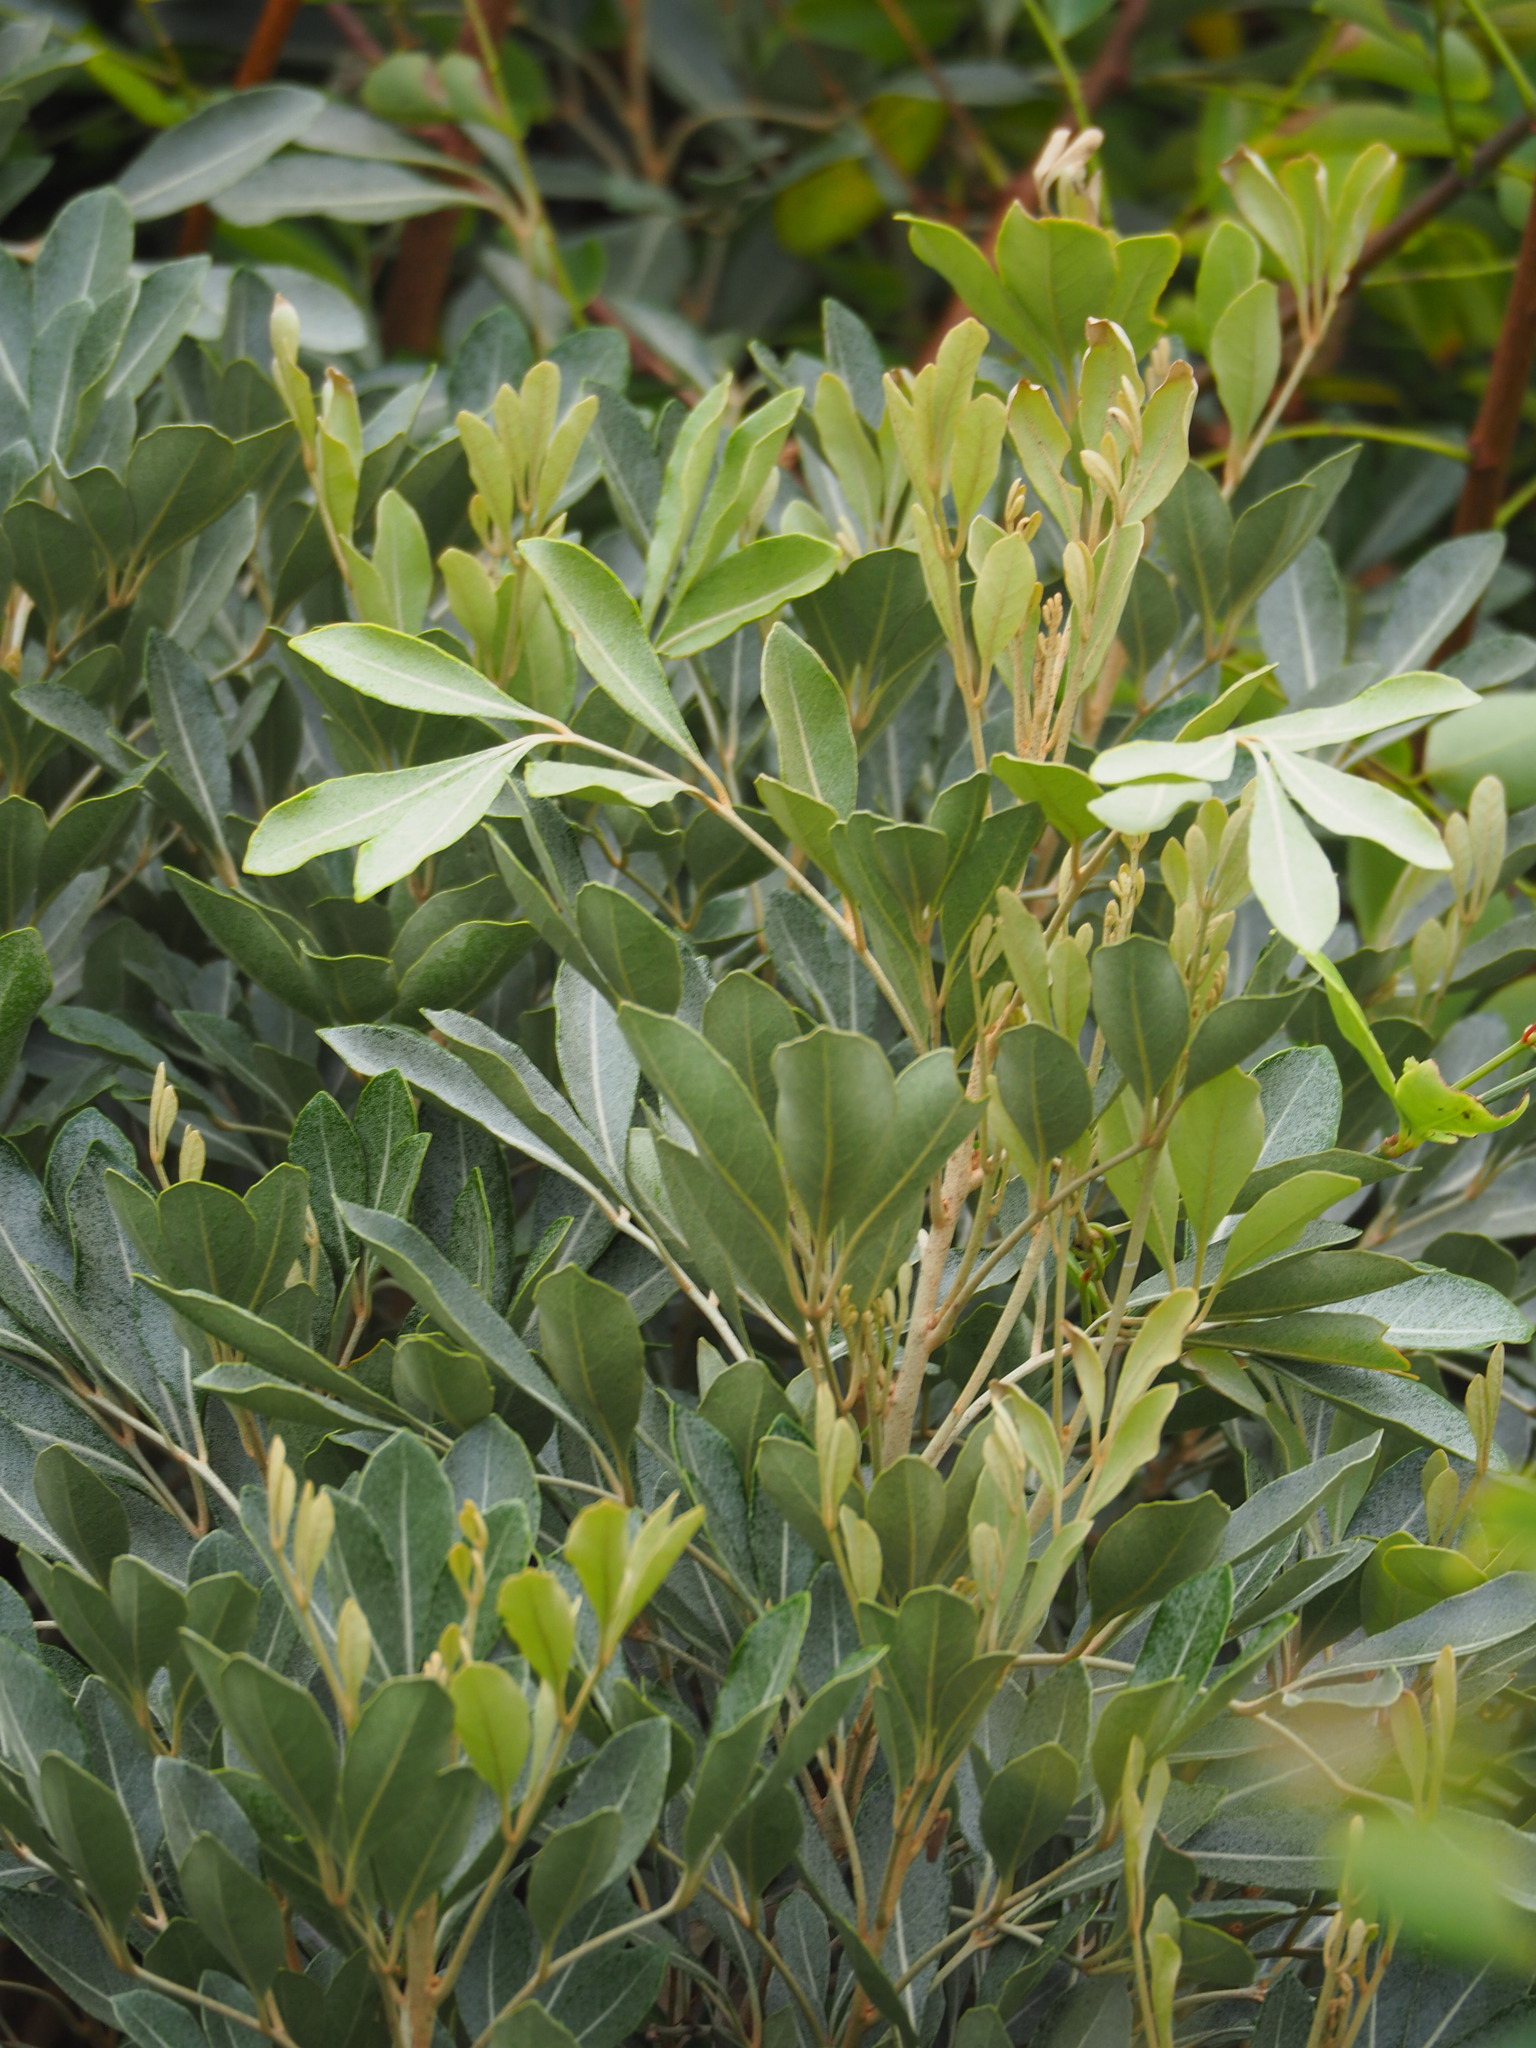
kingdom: Plantae
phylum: Tracheophyta
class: Magnoliopsida
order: Sapindales
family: Meliaceae
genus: Aglaia
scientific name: Aglaia elaeagnoidea
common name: Droopyleaf
